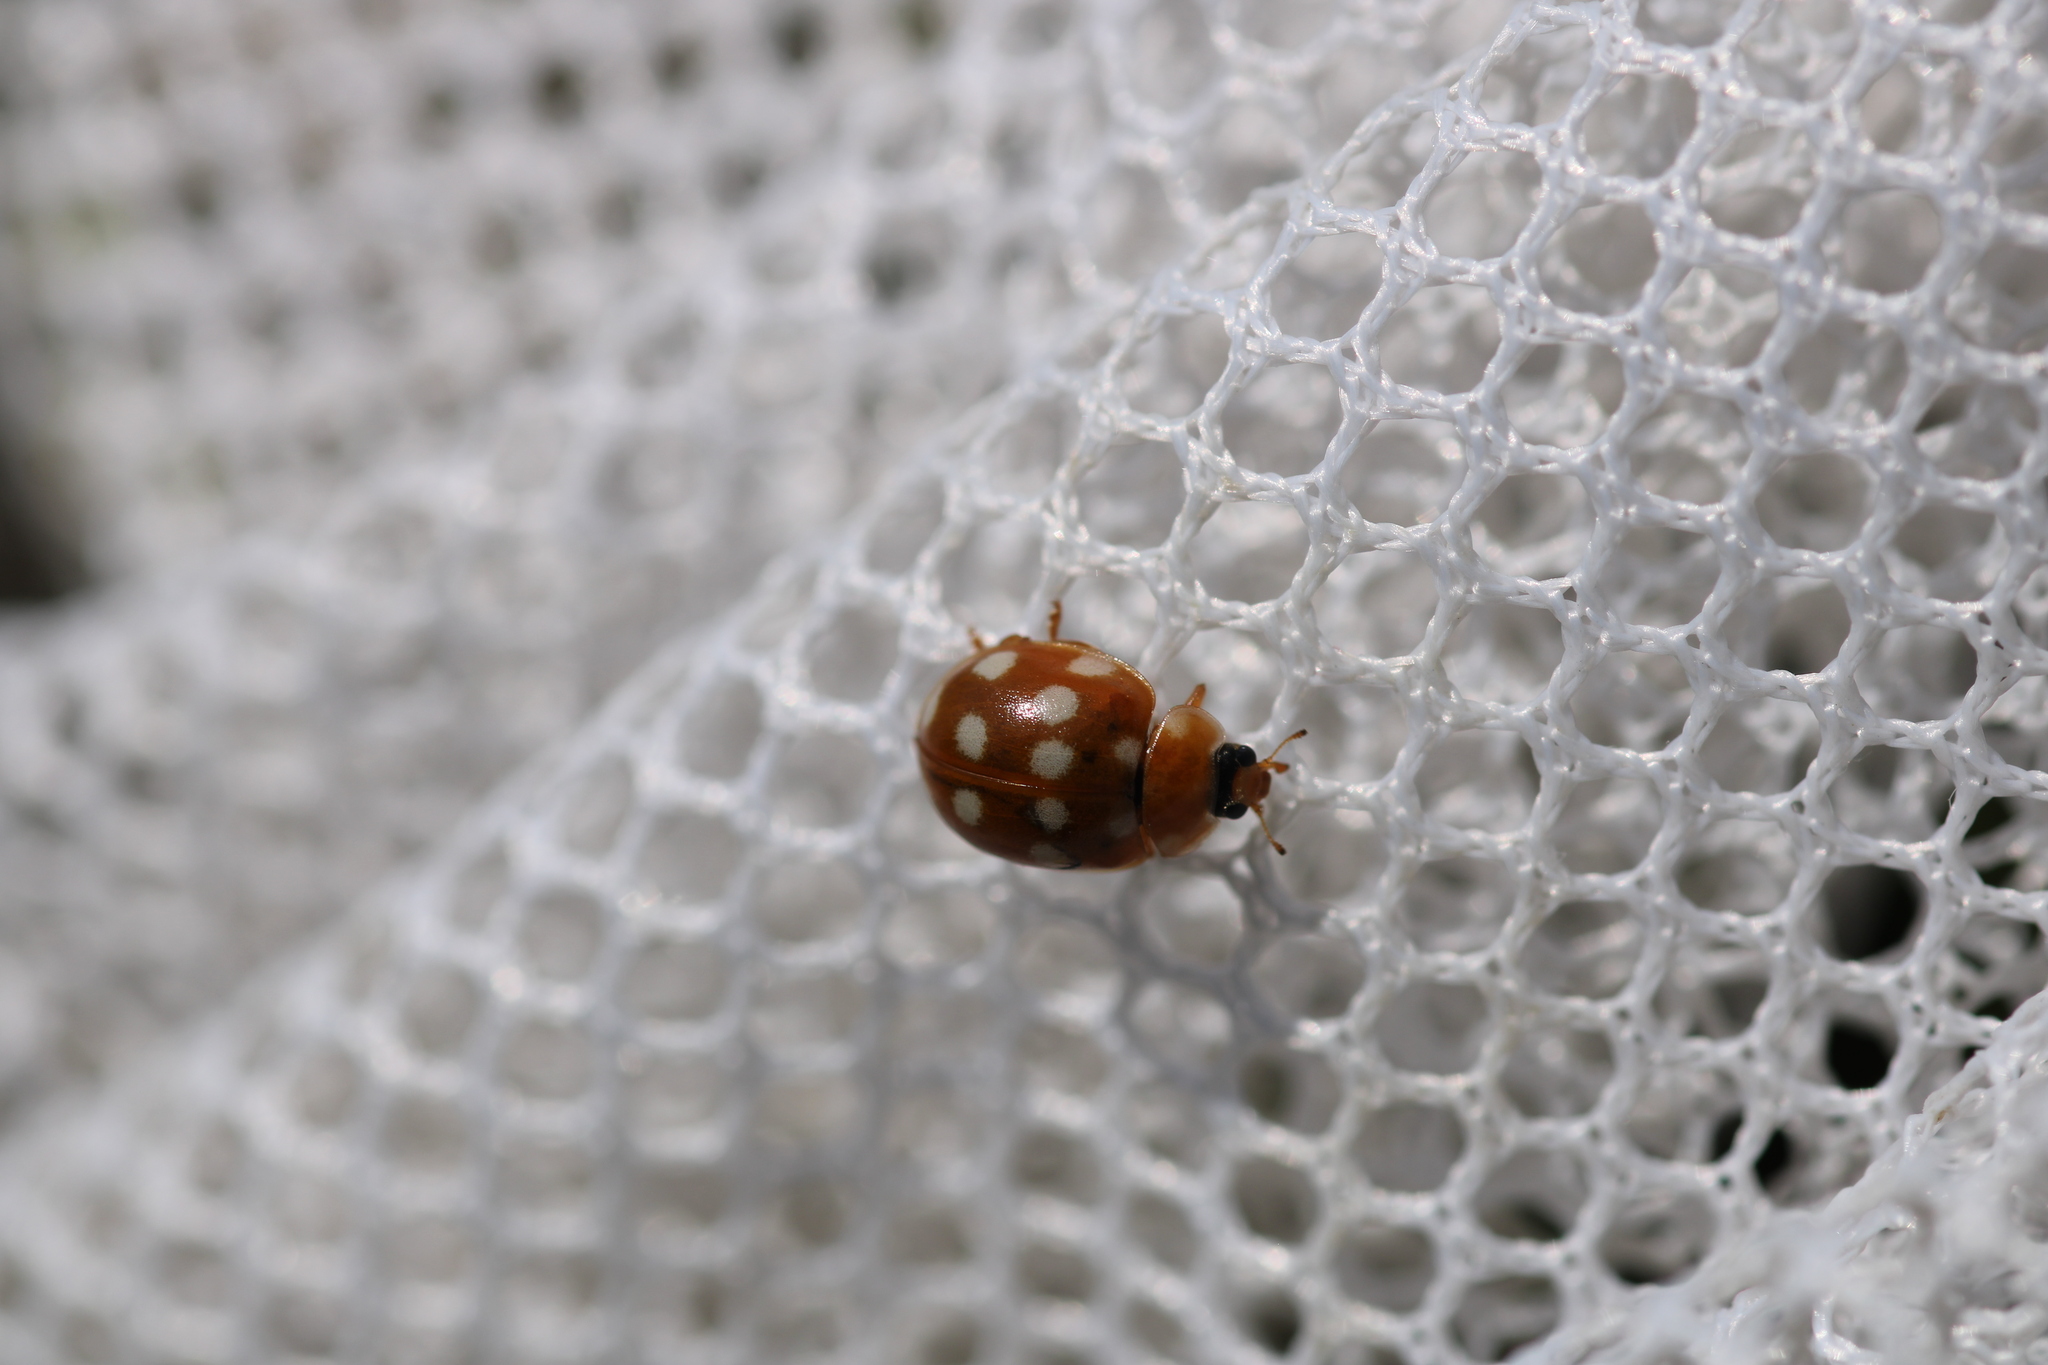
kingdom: Animalia
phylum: Arthropoda
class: Insecta
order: Coleoptera
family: Coccinellidae
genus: Calvia
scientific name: Calvia quatuordecimguttata
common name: Cream-spot ladybird
